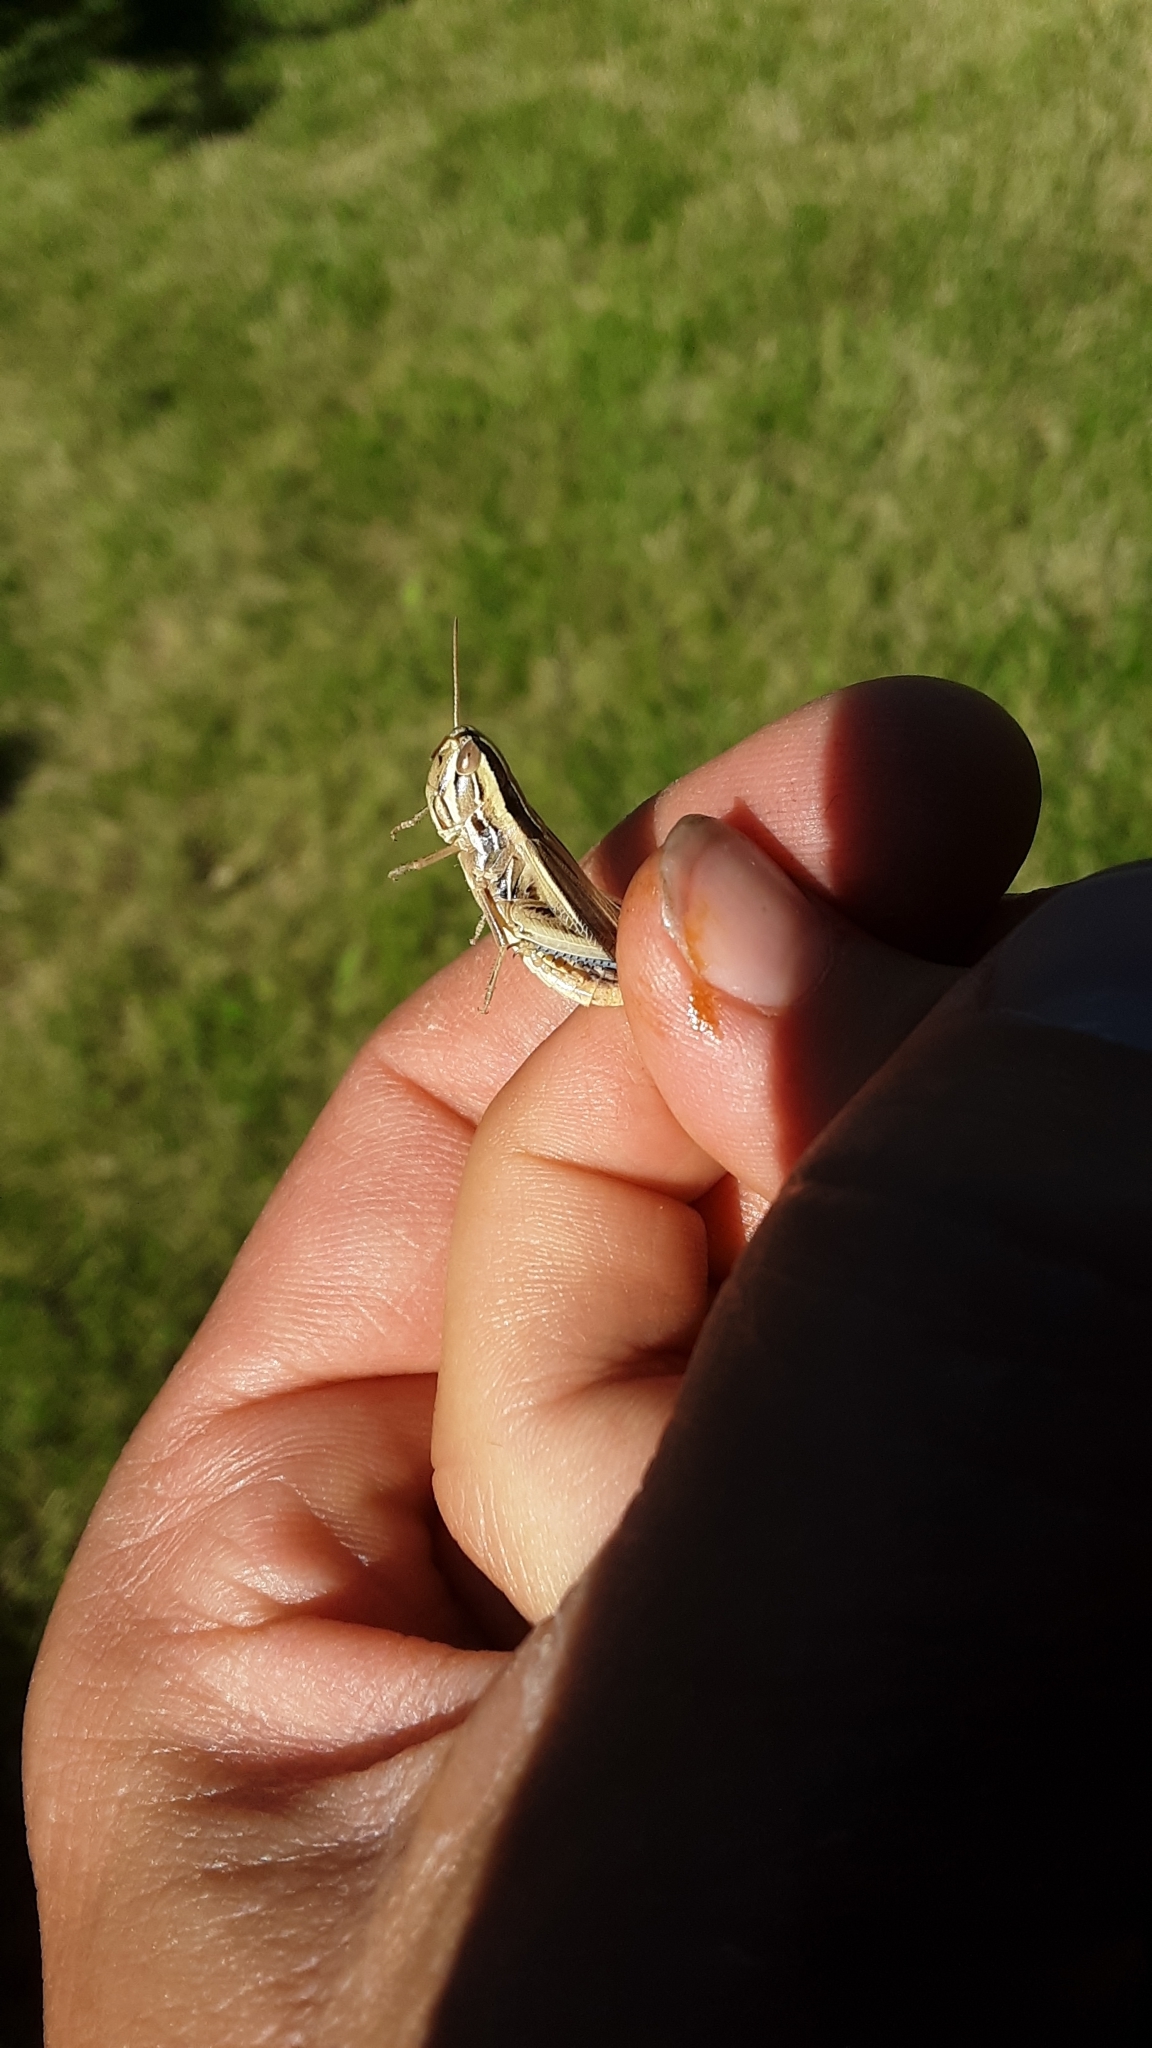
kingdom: Animalia
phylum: Arthropoda
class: Insecta
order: Orthoptera
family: Acrididae
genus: Amphitornus
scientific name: Amphitornus coloradus
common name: Striped grasshopper
